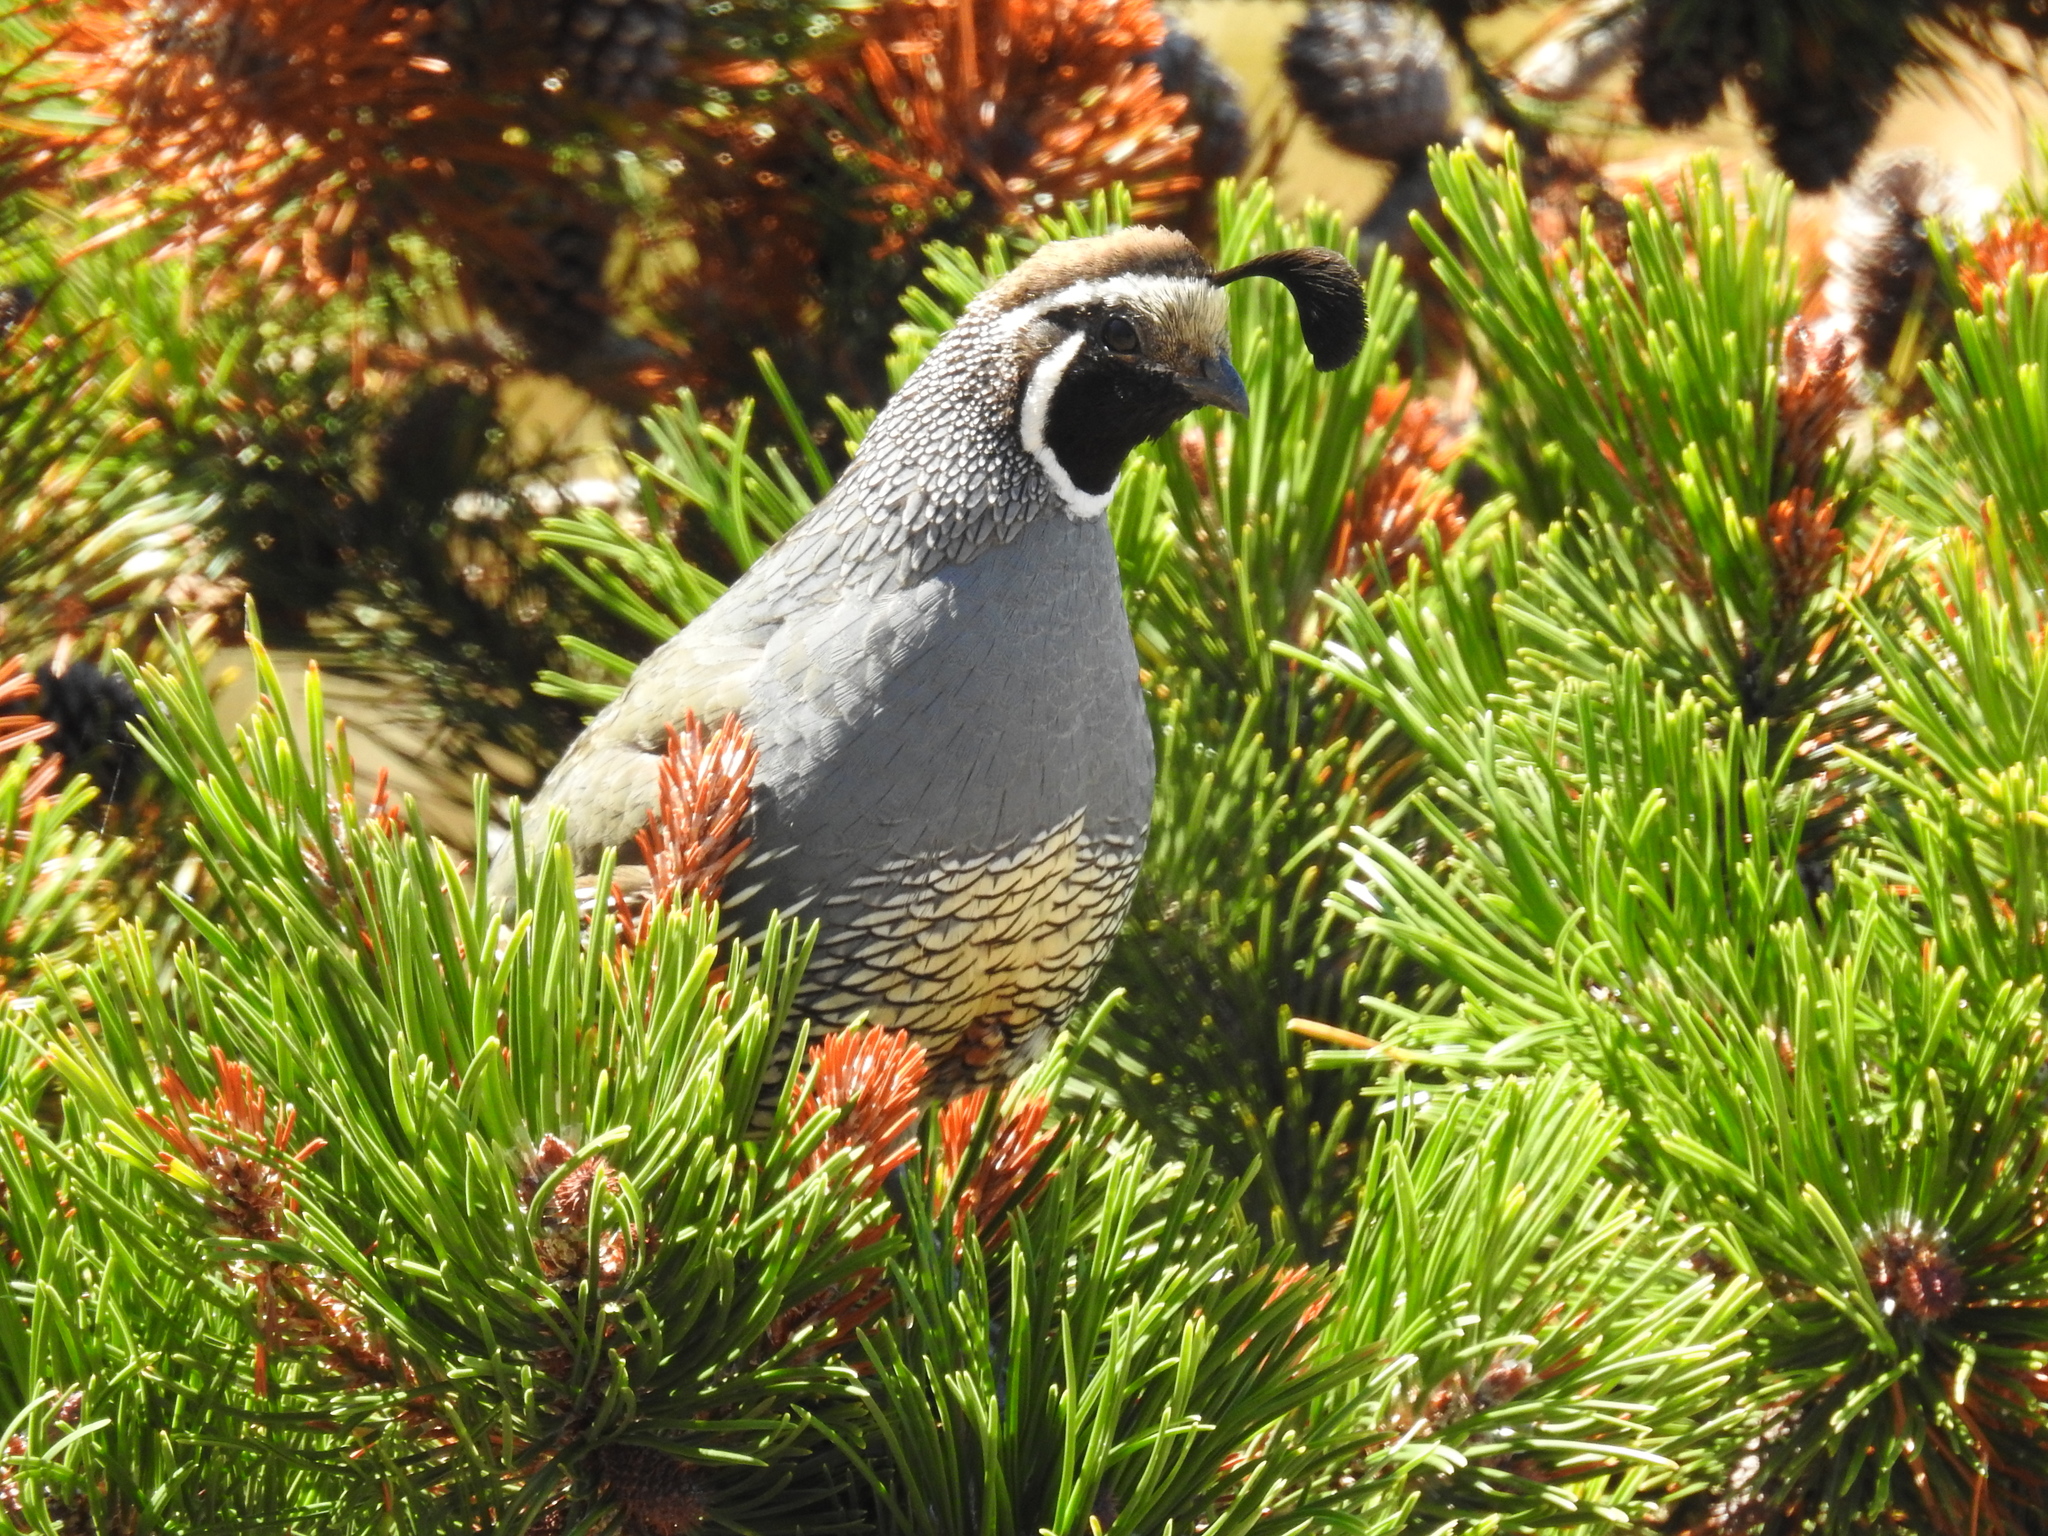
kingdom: Animalia
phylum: Chordata
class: Aves
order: Galliformes
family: Odontophoridae
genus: Callipepla
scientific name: Callipepla californica
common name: California quail
